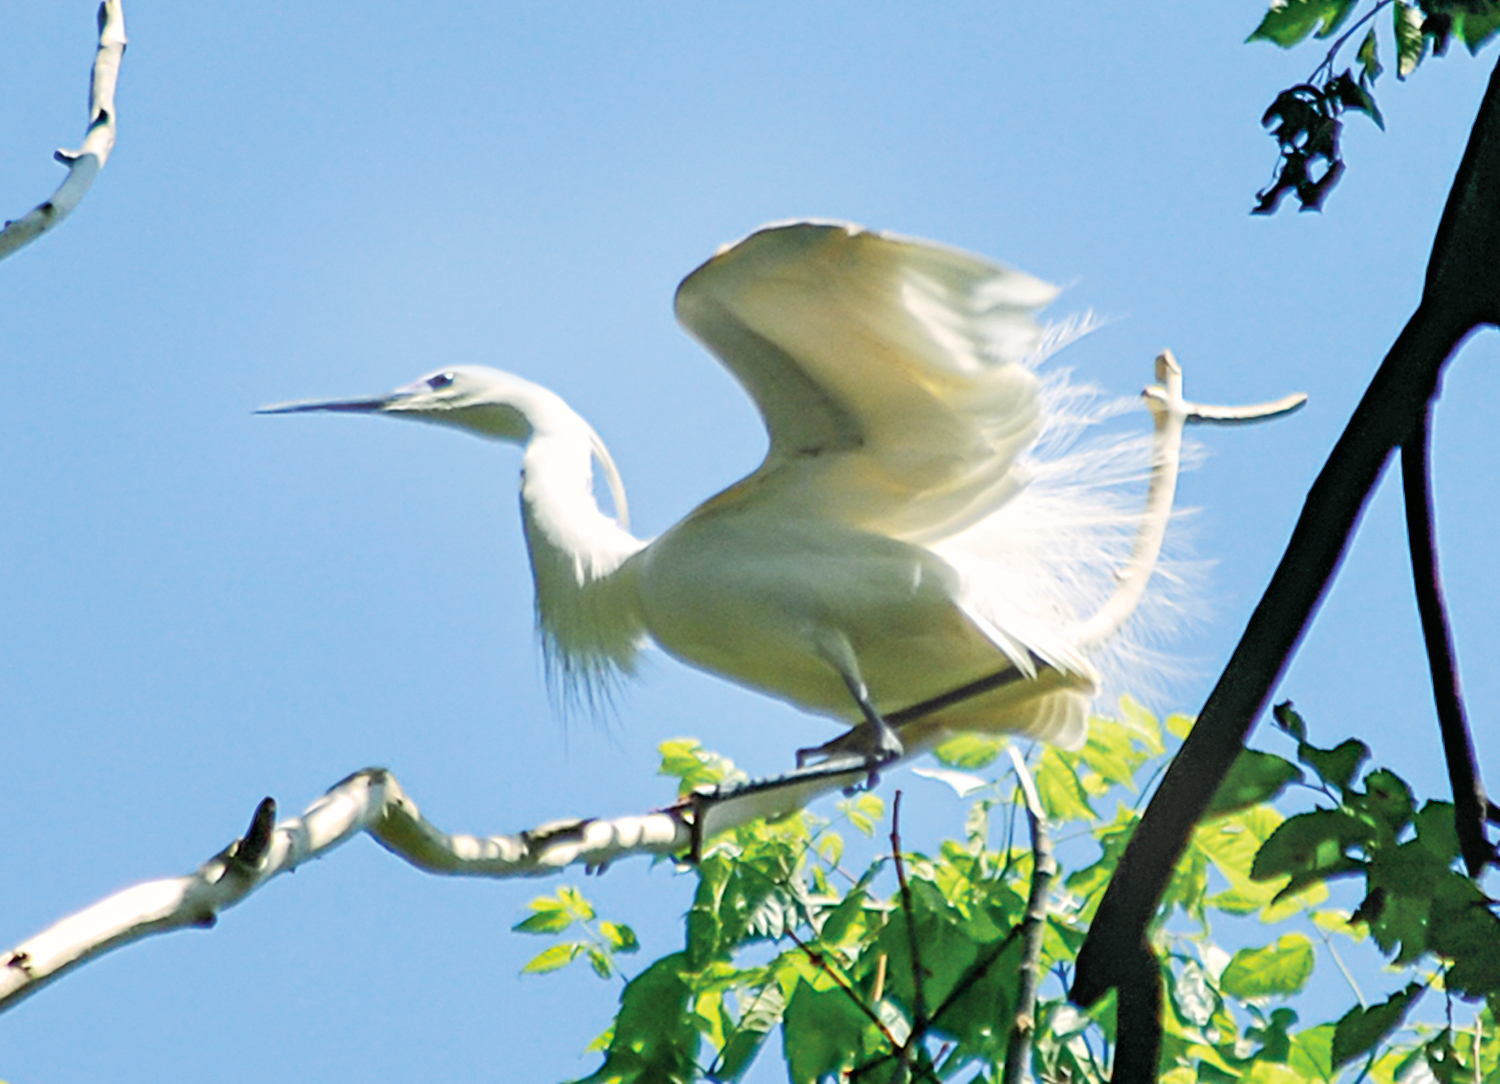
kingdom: Animalia
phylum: Chordata
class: Aves
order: Pelecaniformes
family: Ardeidae
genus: Egretta
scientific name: Egretta garzetta
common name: Little egret
